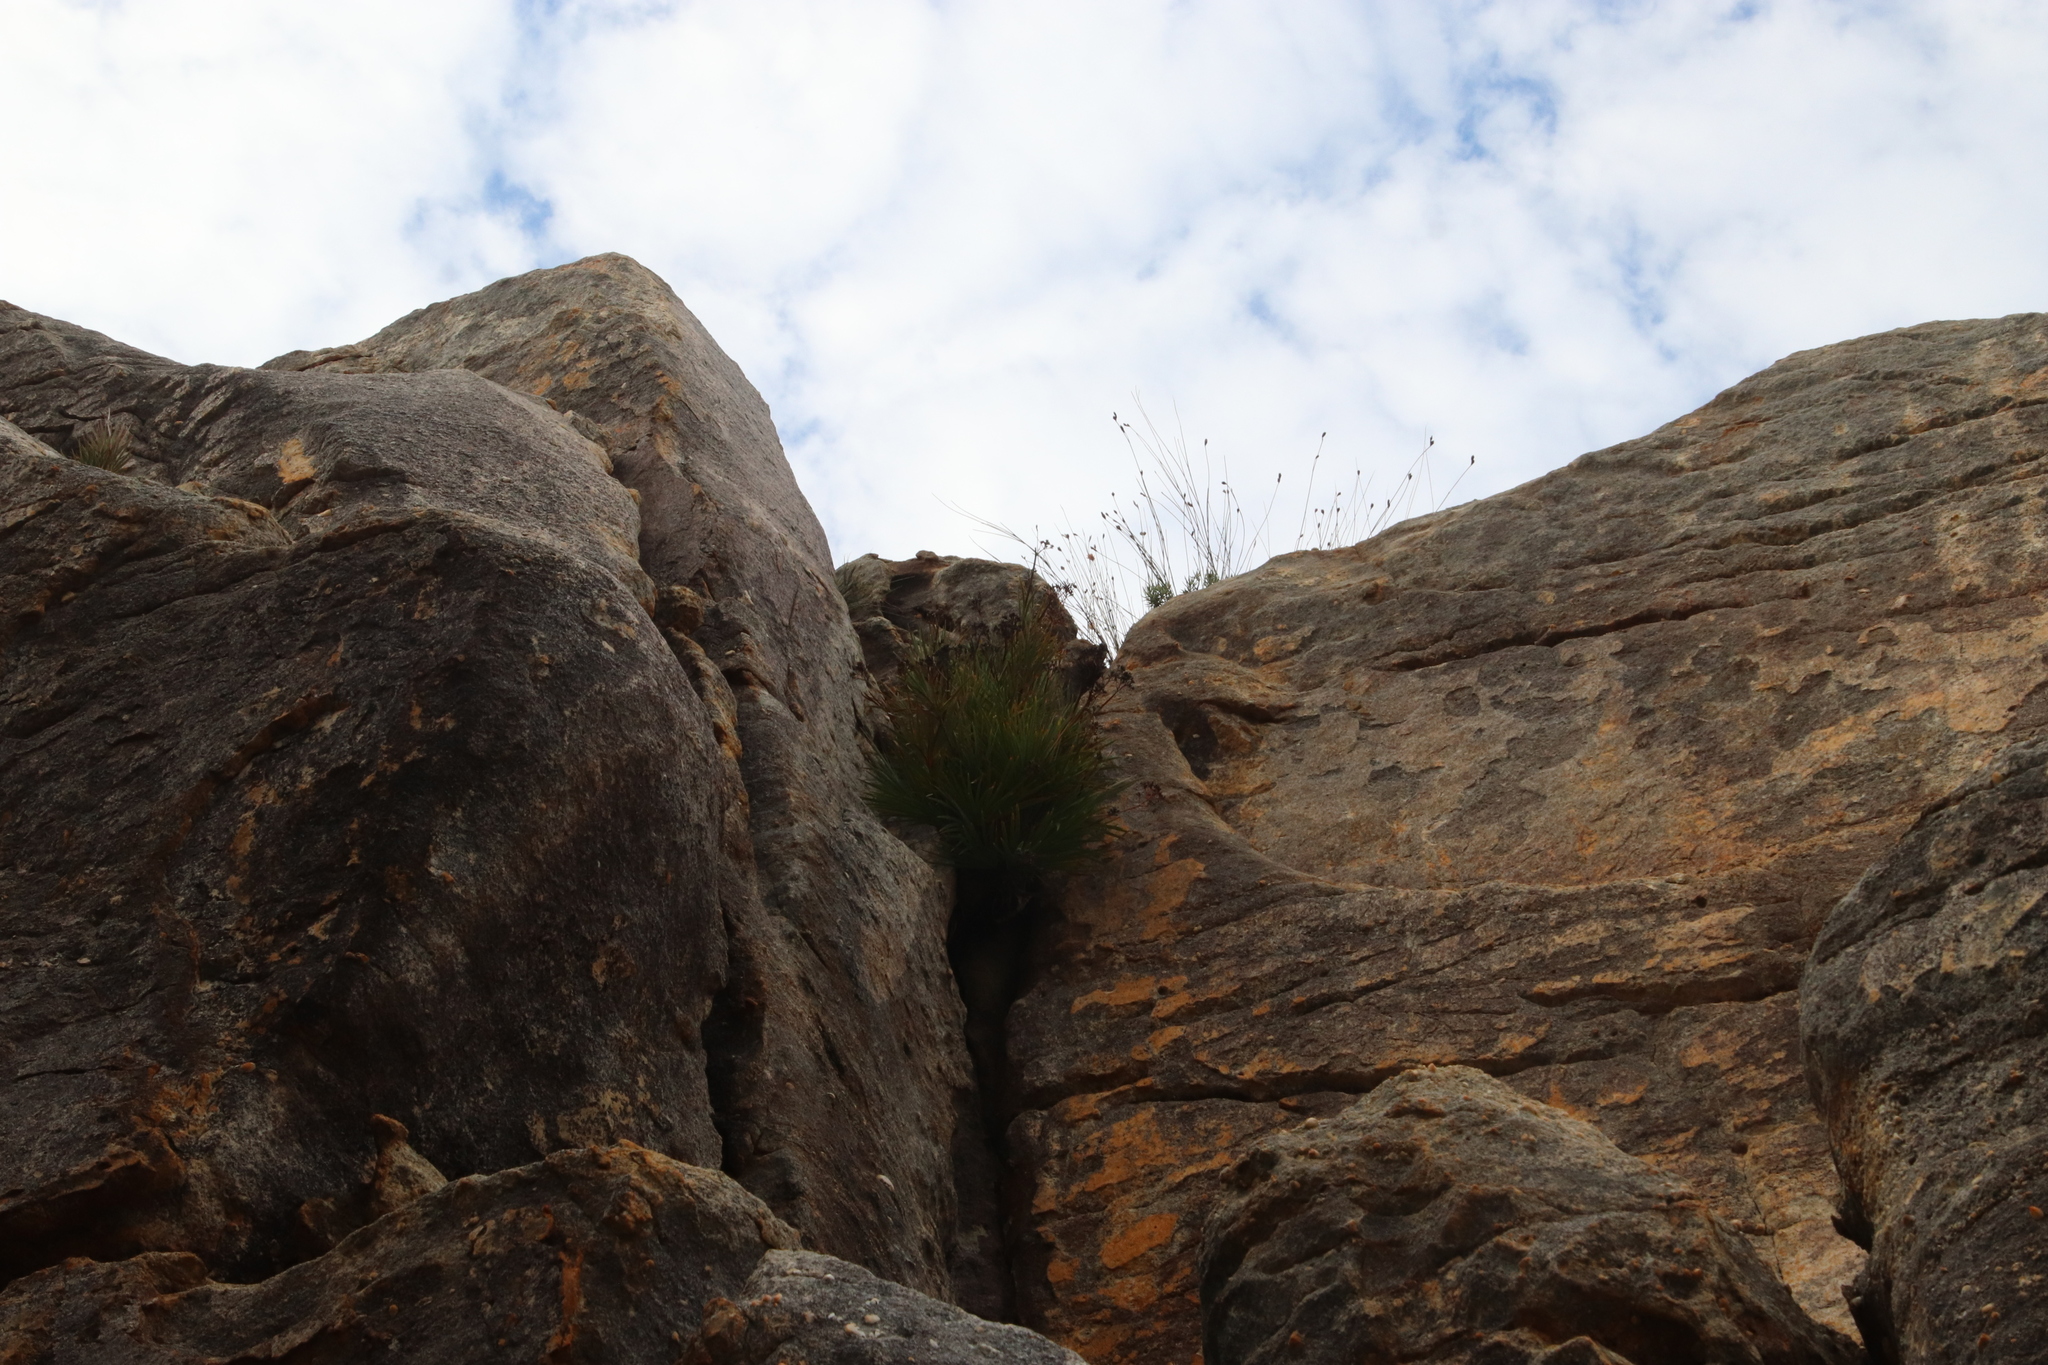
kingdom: Plantae
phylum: Tracheophyta
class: Liliopsida
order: Asparagales
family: Iridaceae
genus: Nivenia
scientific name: Nivenia corymbosa
